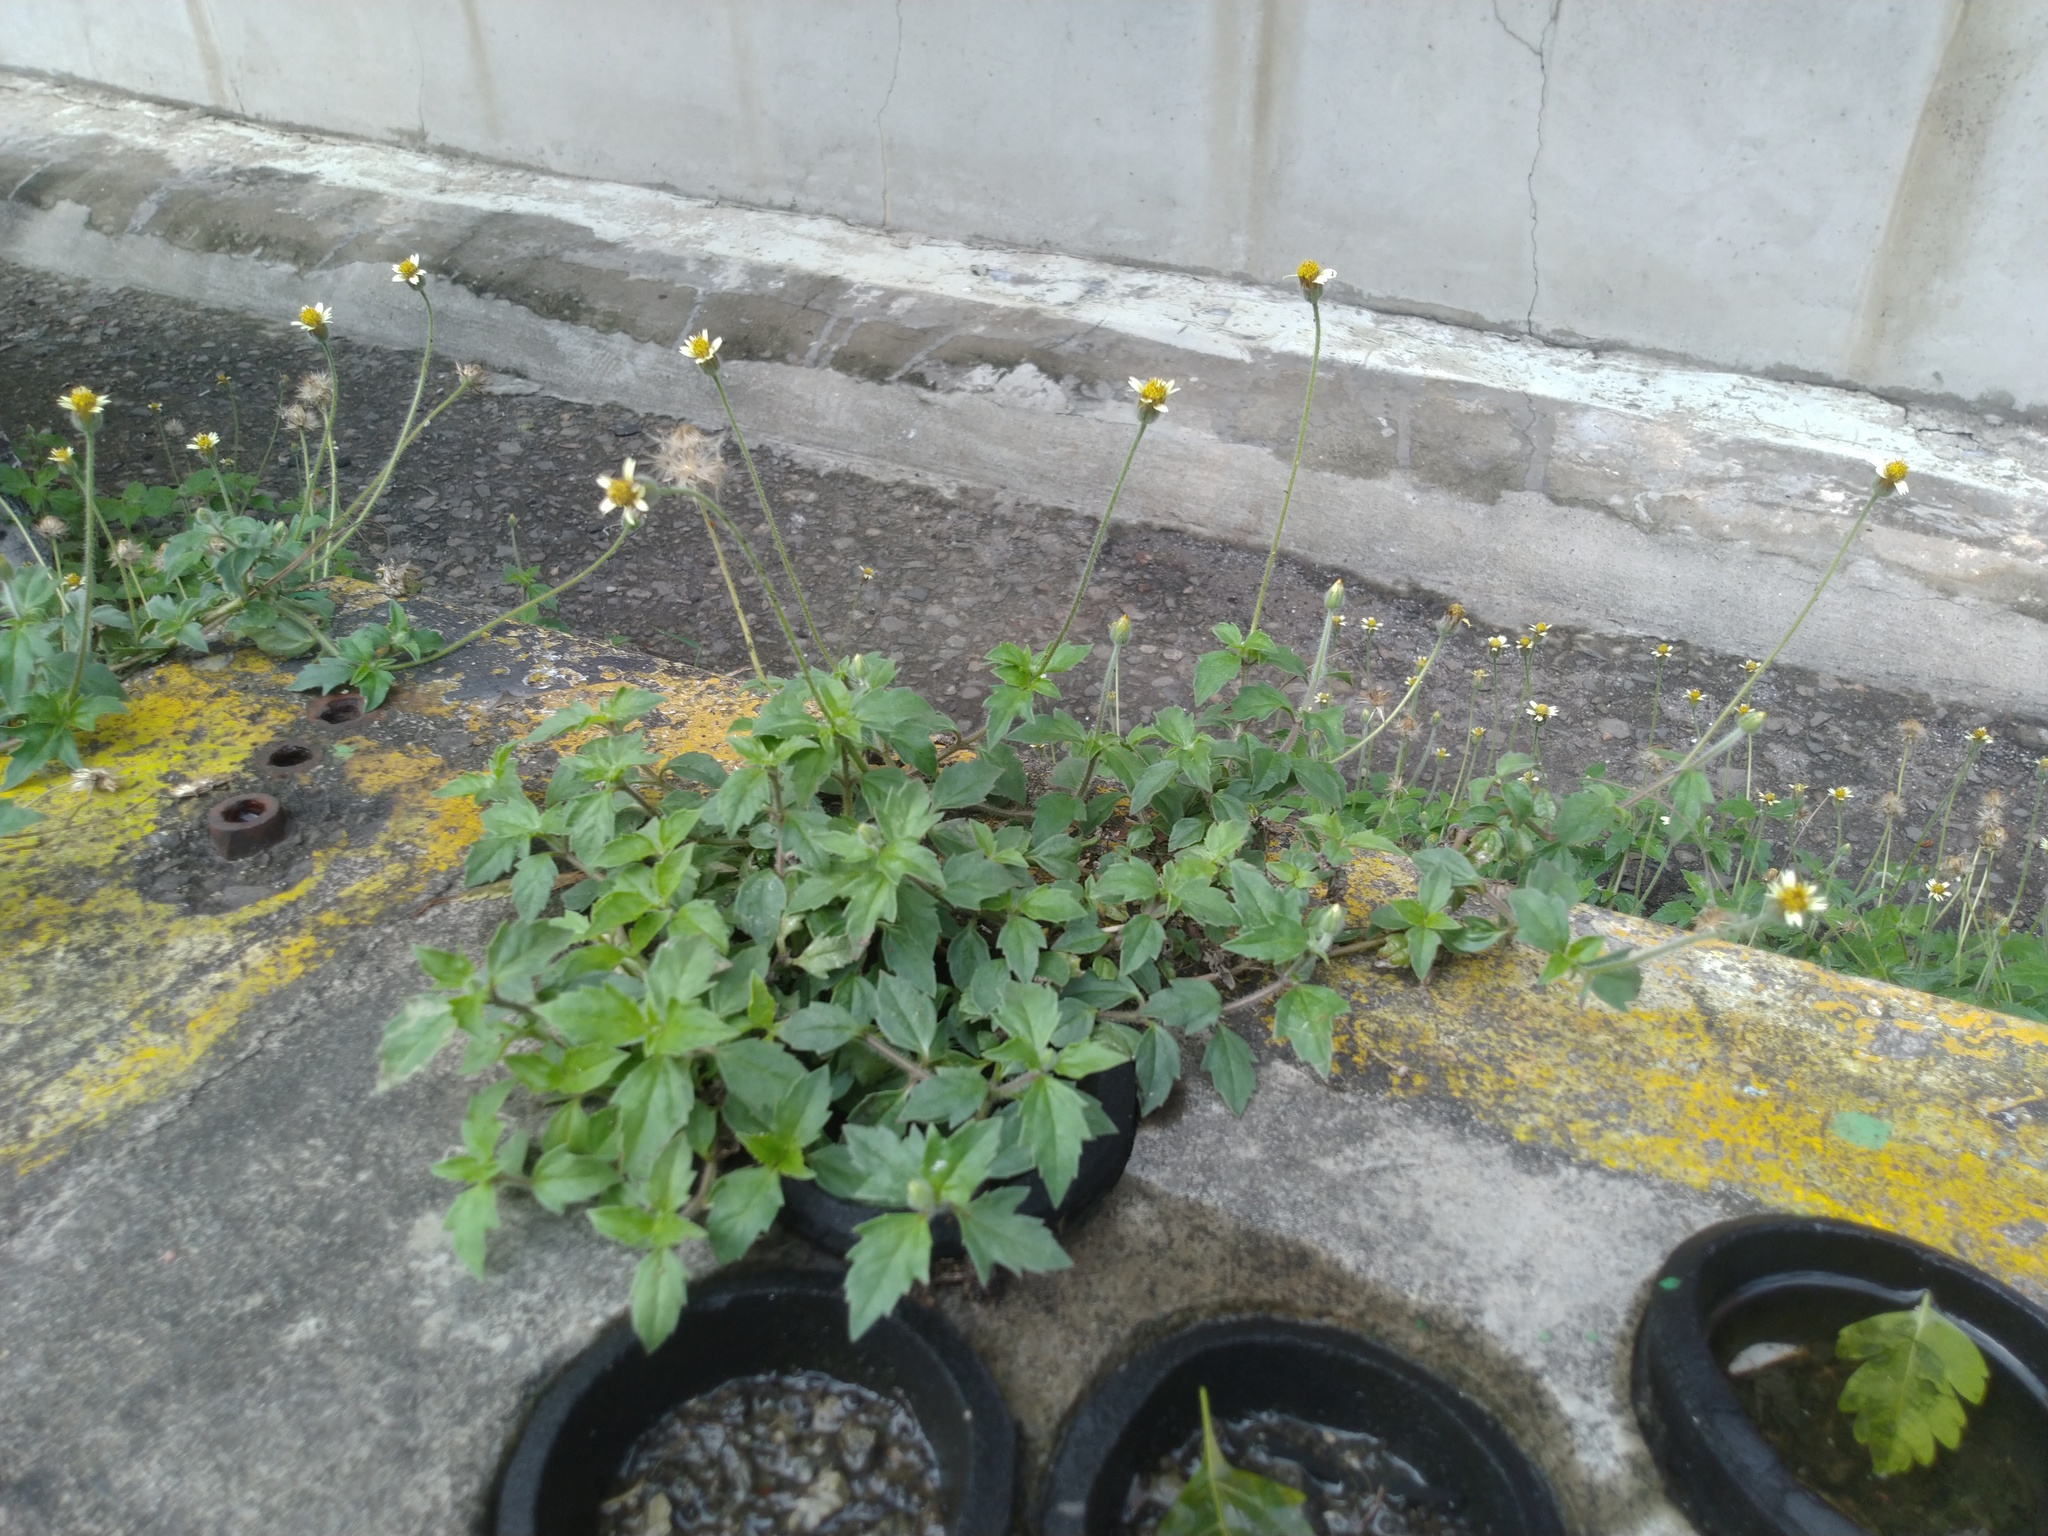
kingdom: Plantae
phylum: Tracheophyta
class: Magnoliopsida
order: Asterales
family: Asteraceae
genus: Tridax
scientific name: Tridax procumbens
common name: Coatbuttons
